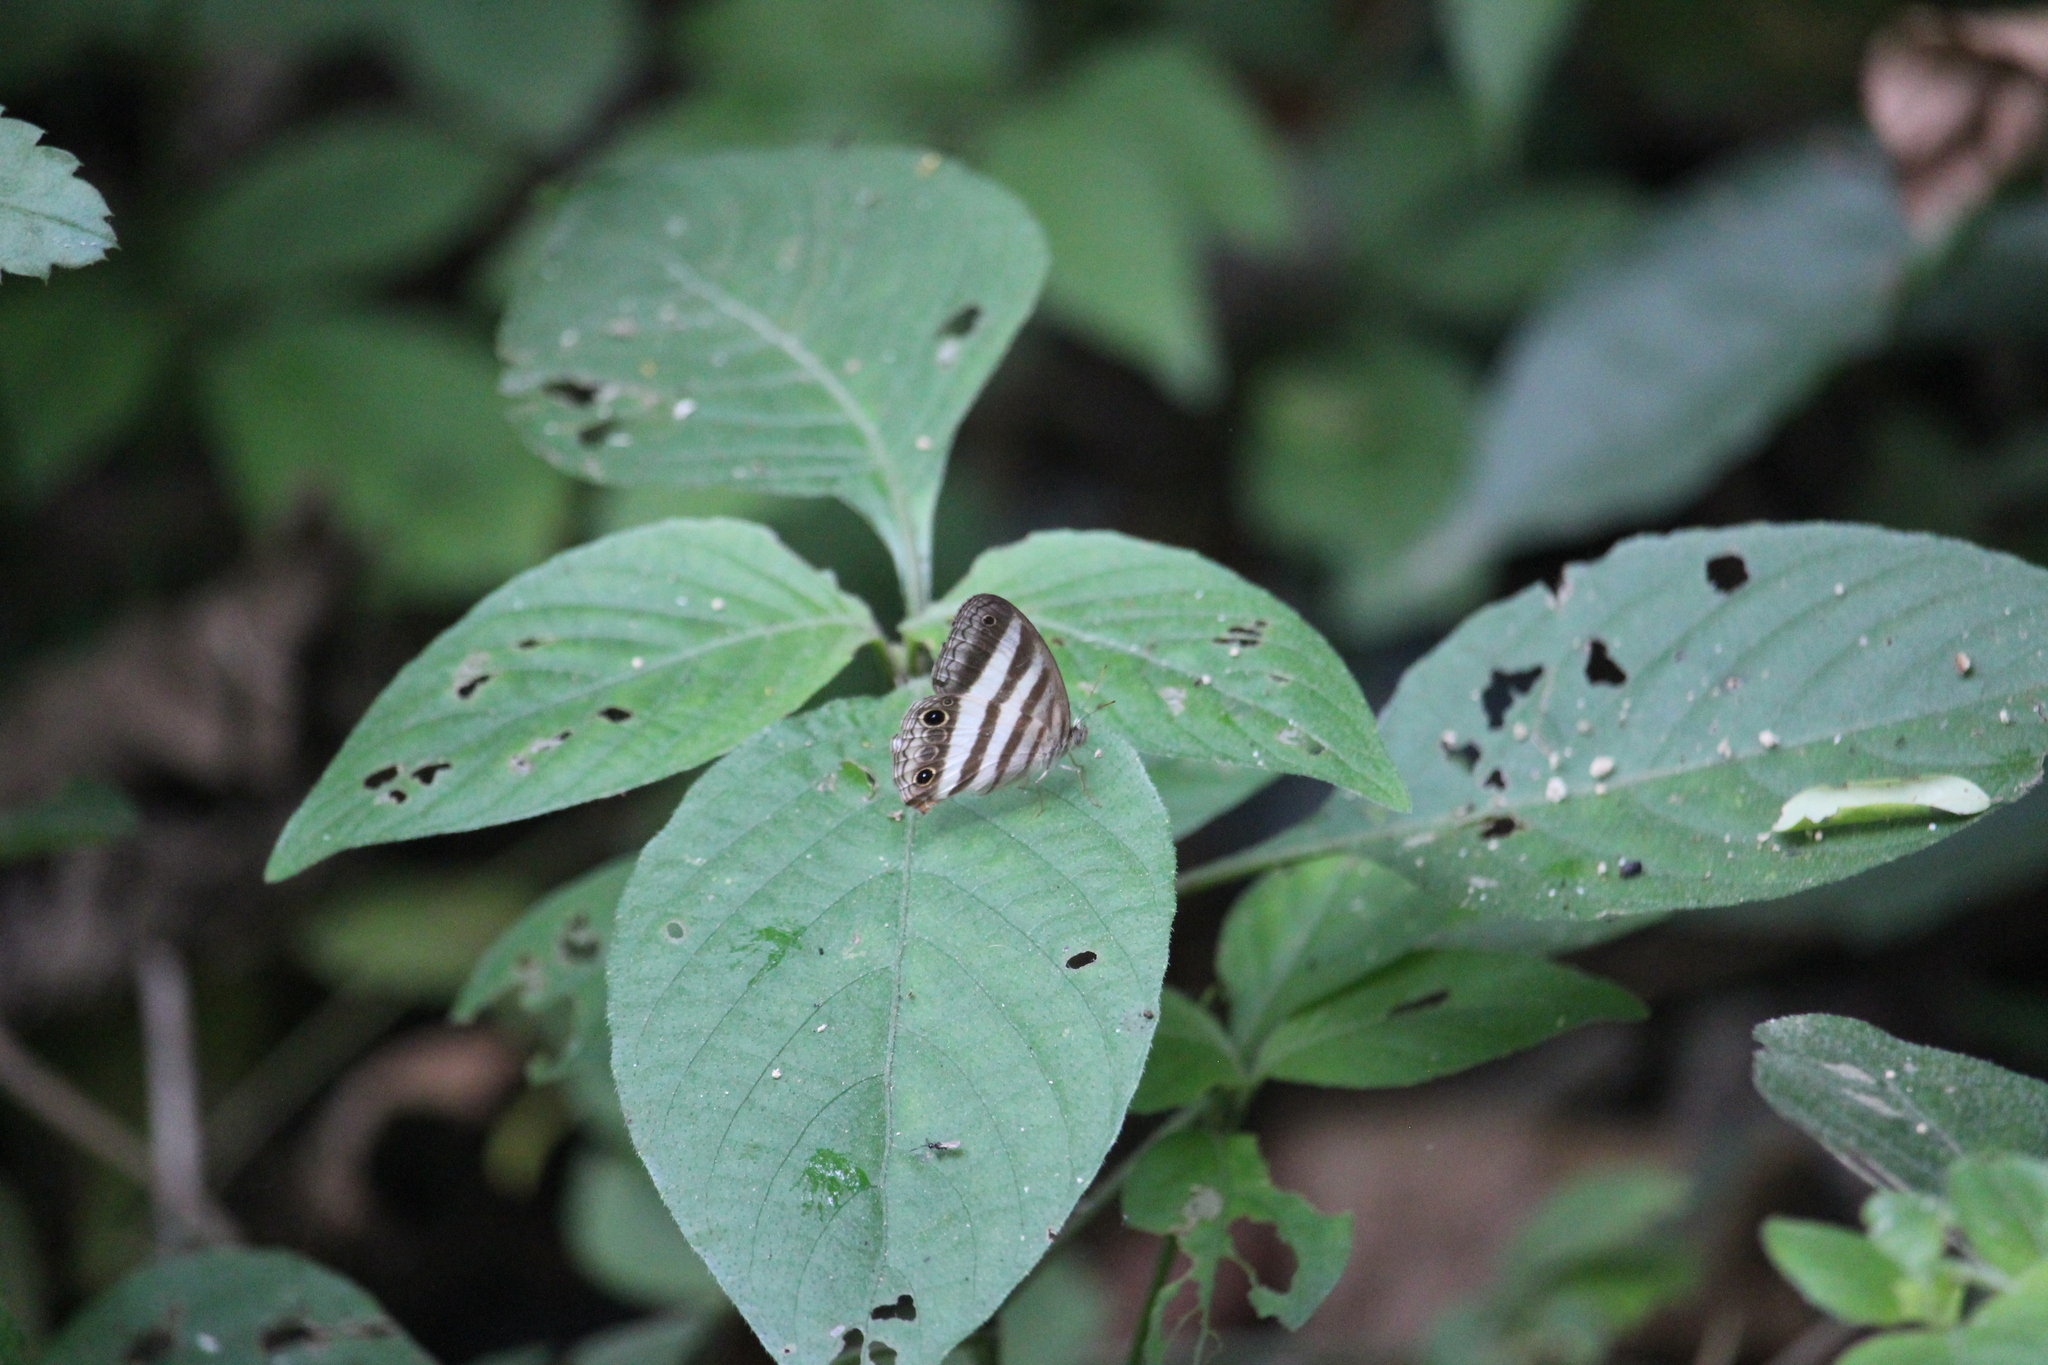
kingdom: Animalia
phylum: Arthropoda
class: Insecta
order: Lepidoptera
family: Nymphalidae
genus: Pareuptychia
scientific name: Pareuptychia hesione
